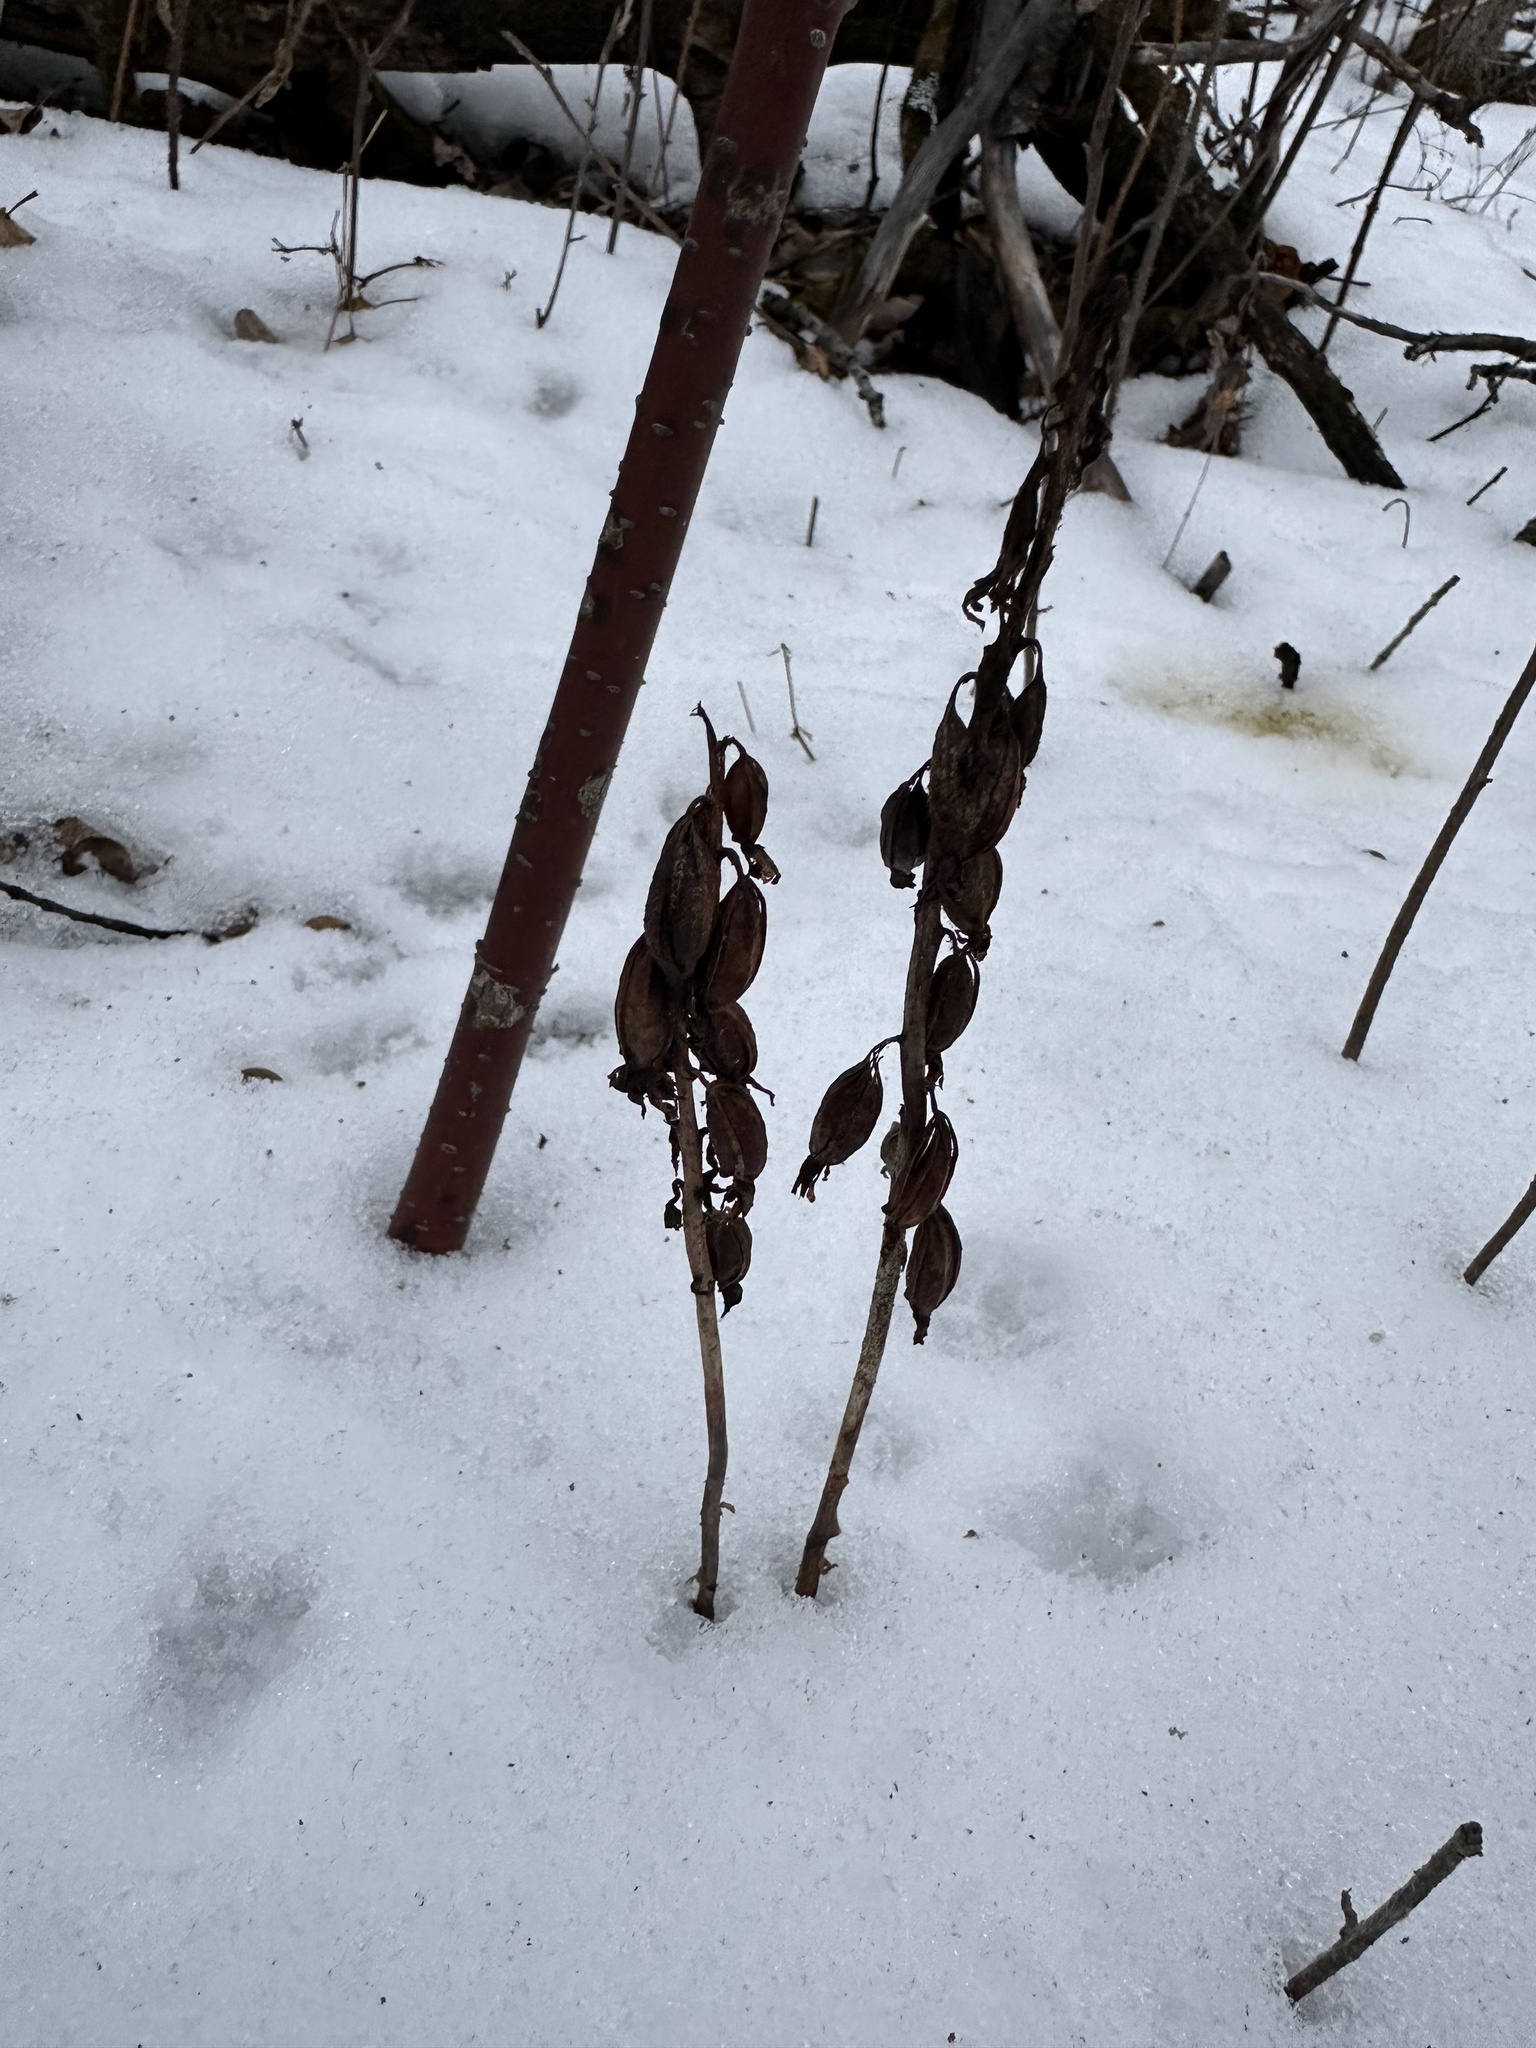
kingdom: Plantae
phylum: Tracheophyta
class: Liliopsida
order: Asparagales
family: Orchidaceae
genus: Corallorhiza
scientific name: Corallorhiza maculata
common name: Spotted coralroot
